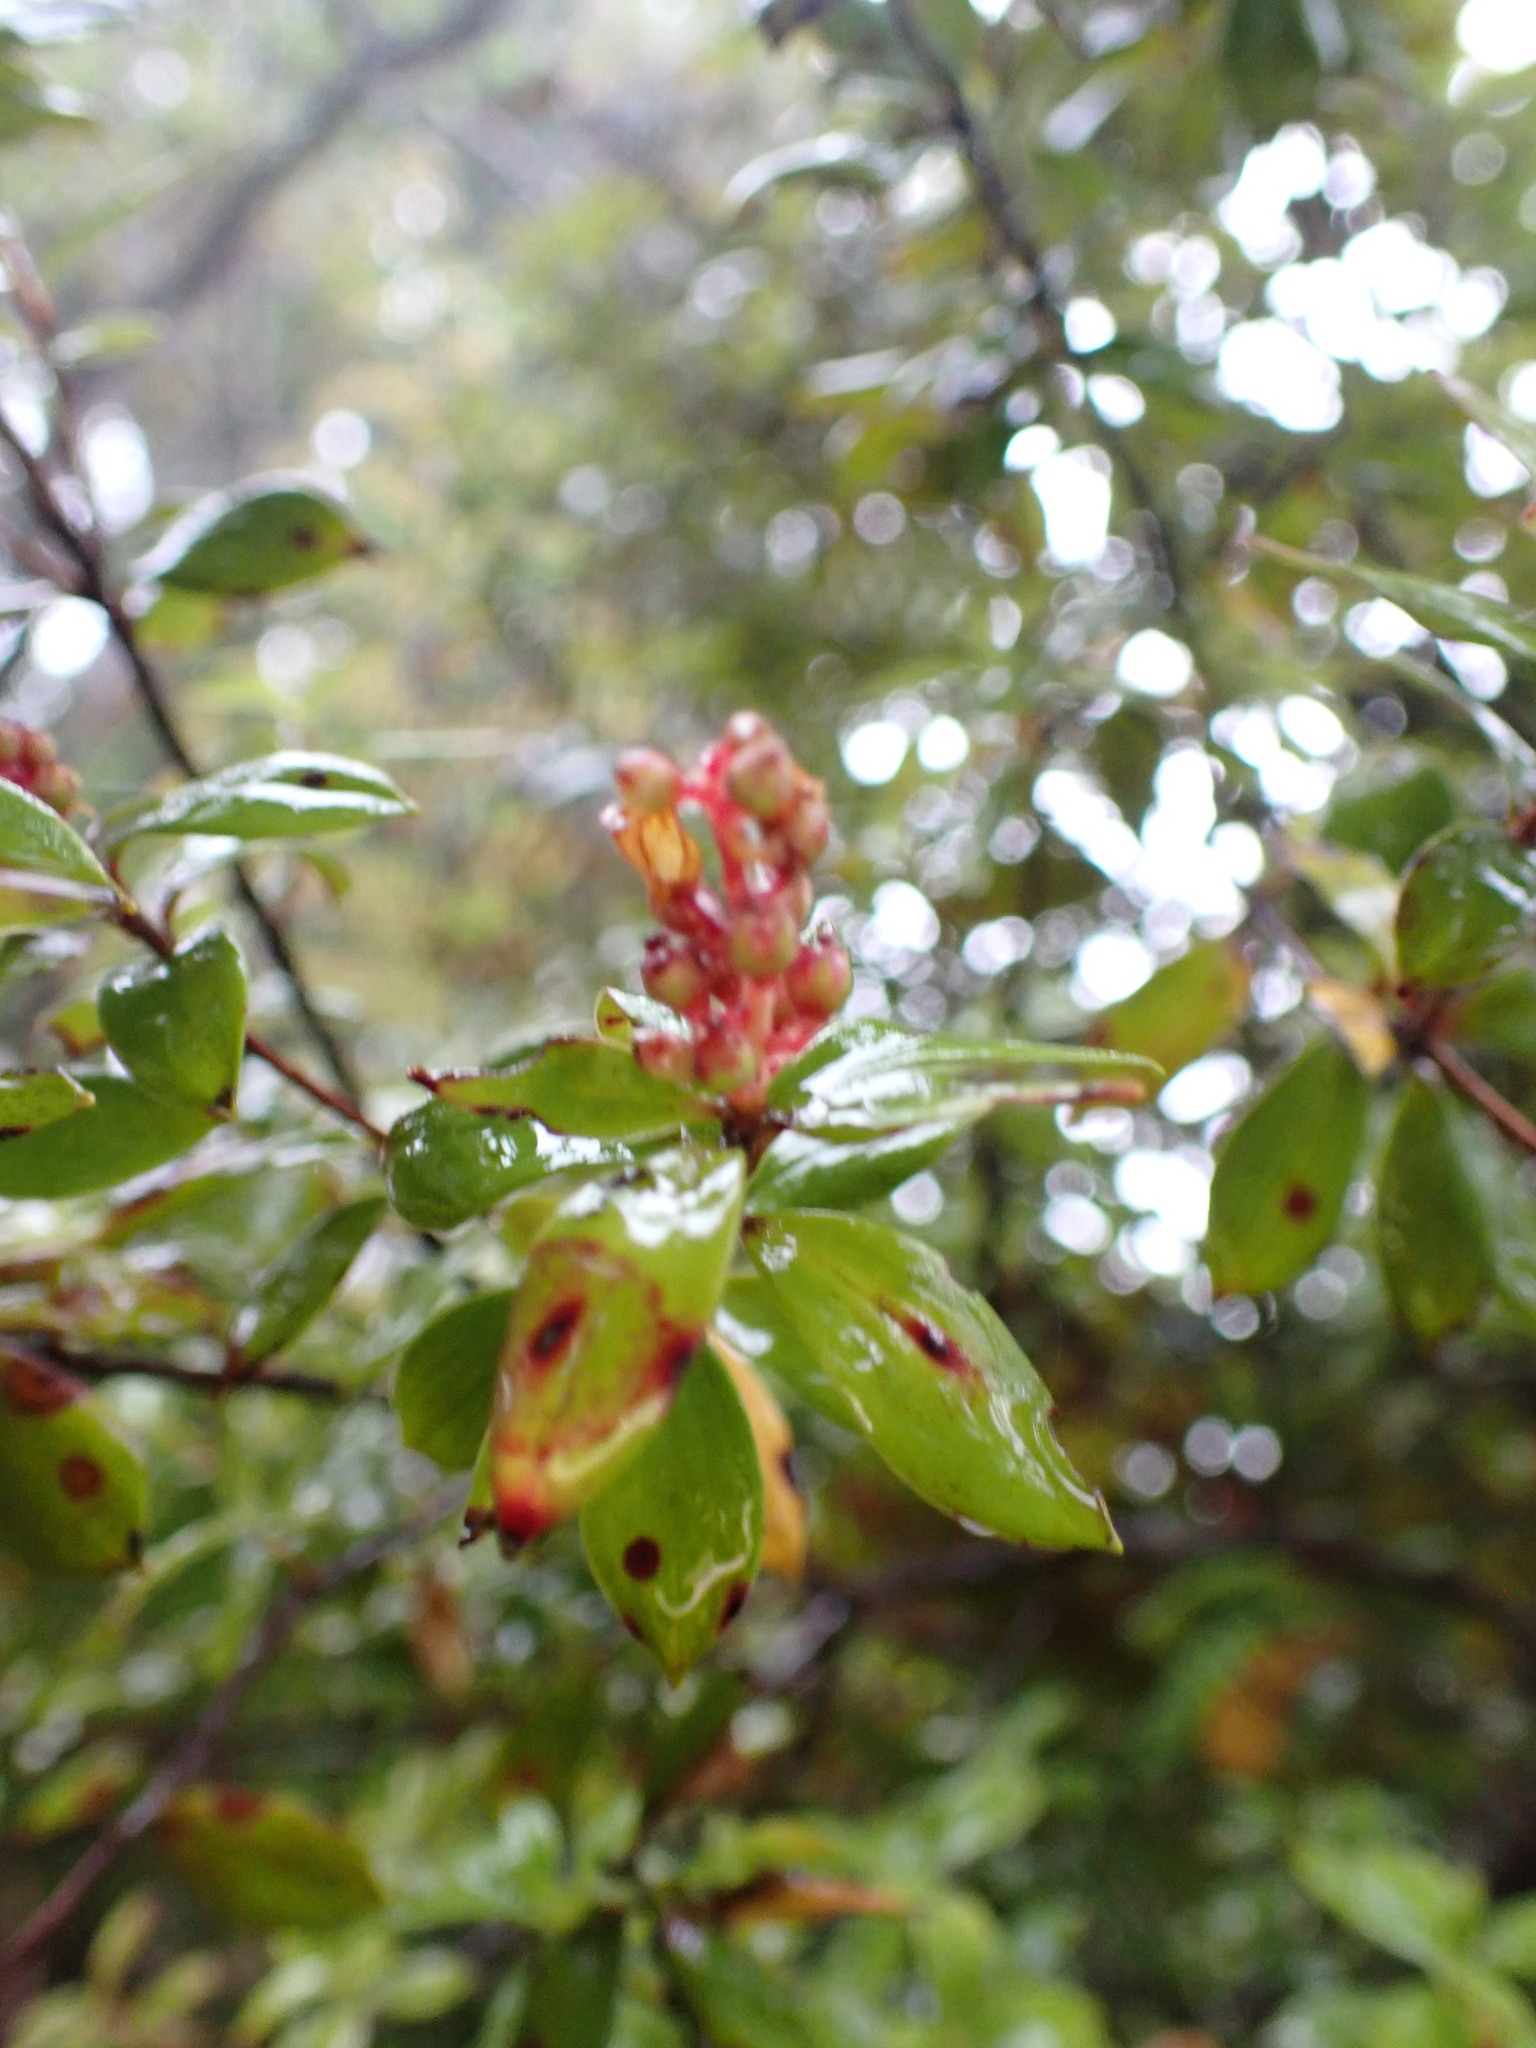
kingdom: Plantae
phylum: Tracheophyta
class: Magnoliopsida
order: Ericales
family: Ericaceae
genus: Archeria
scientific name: Archeria racemosa
